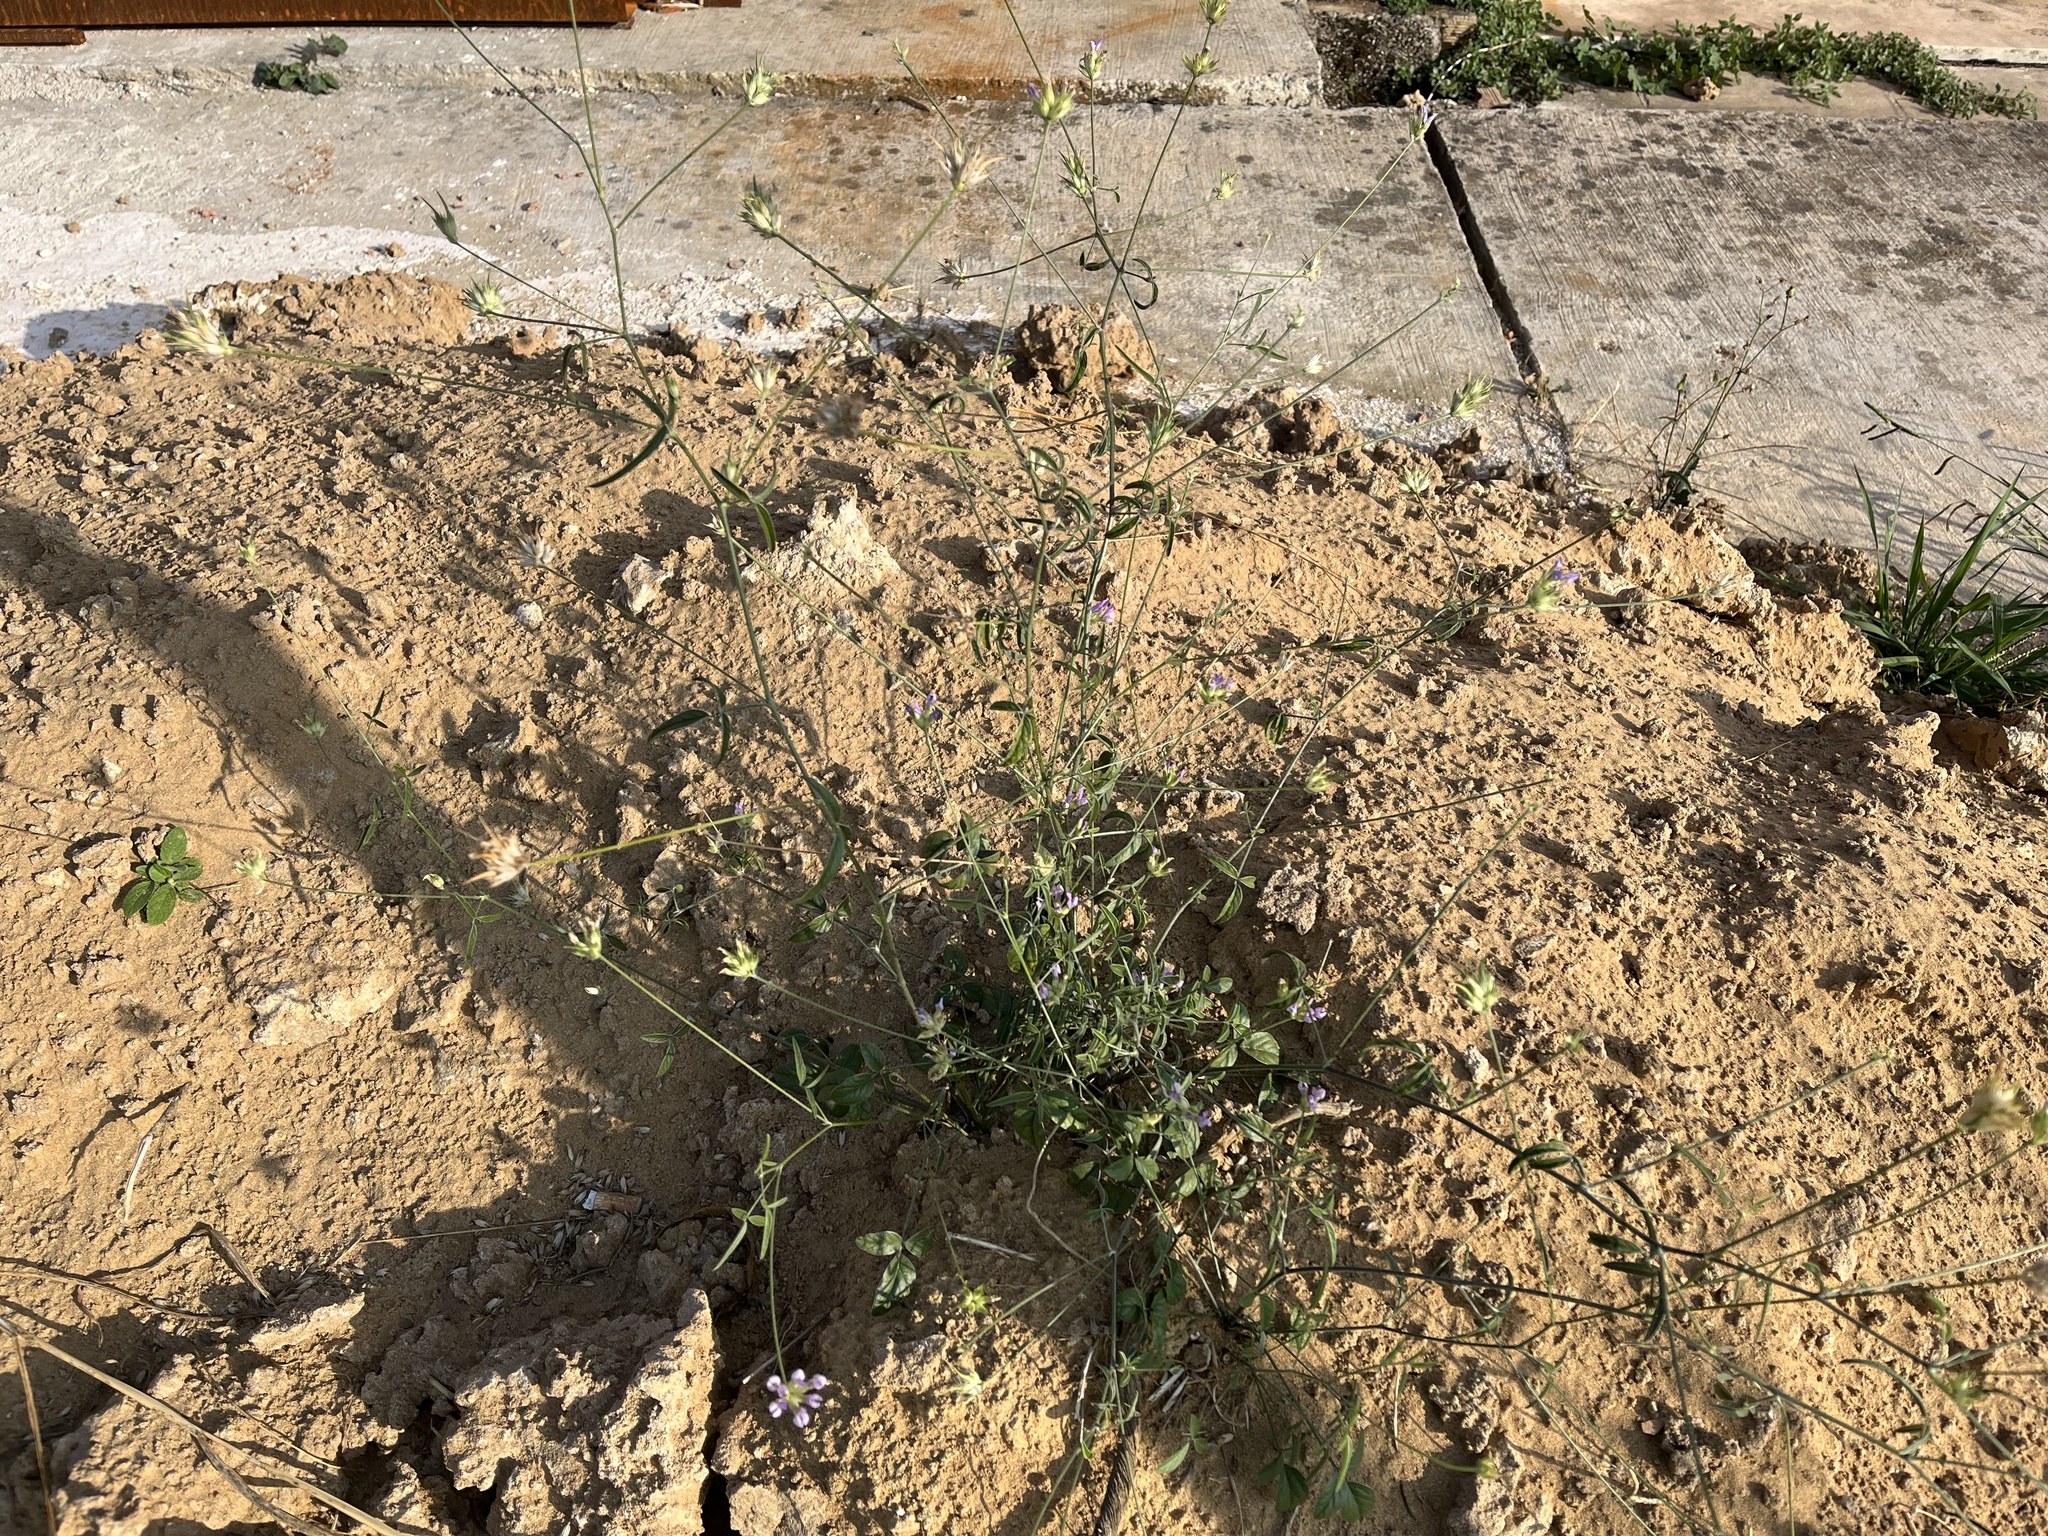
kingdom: Plantae
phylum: Tracheophyta
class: Magnoliopsida
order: Fabales
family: Fabaceae
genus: Bituminaria
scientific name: Bituminaria bituminosa
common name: Arabian pea
